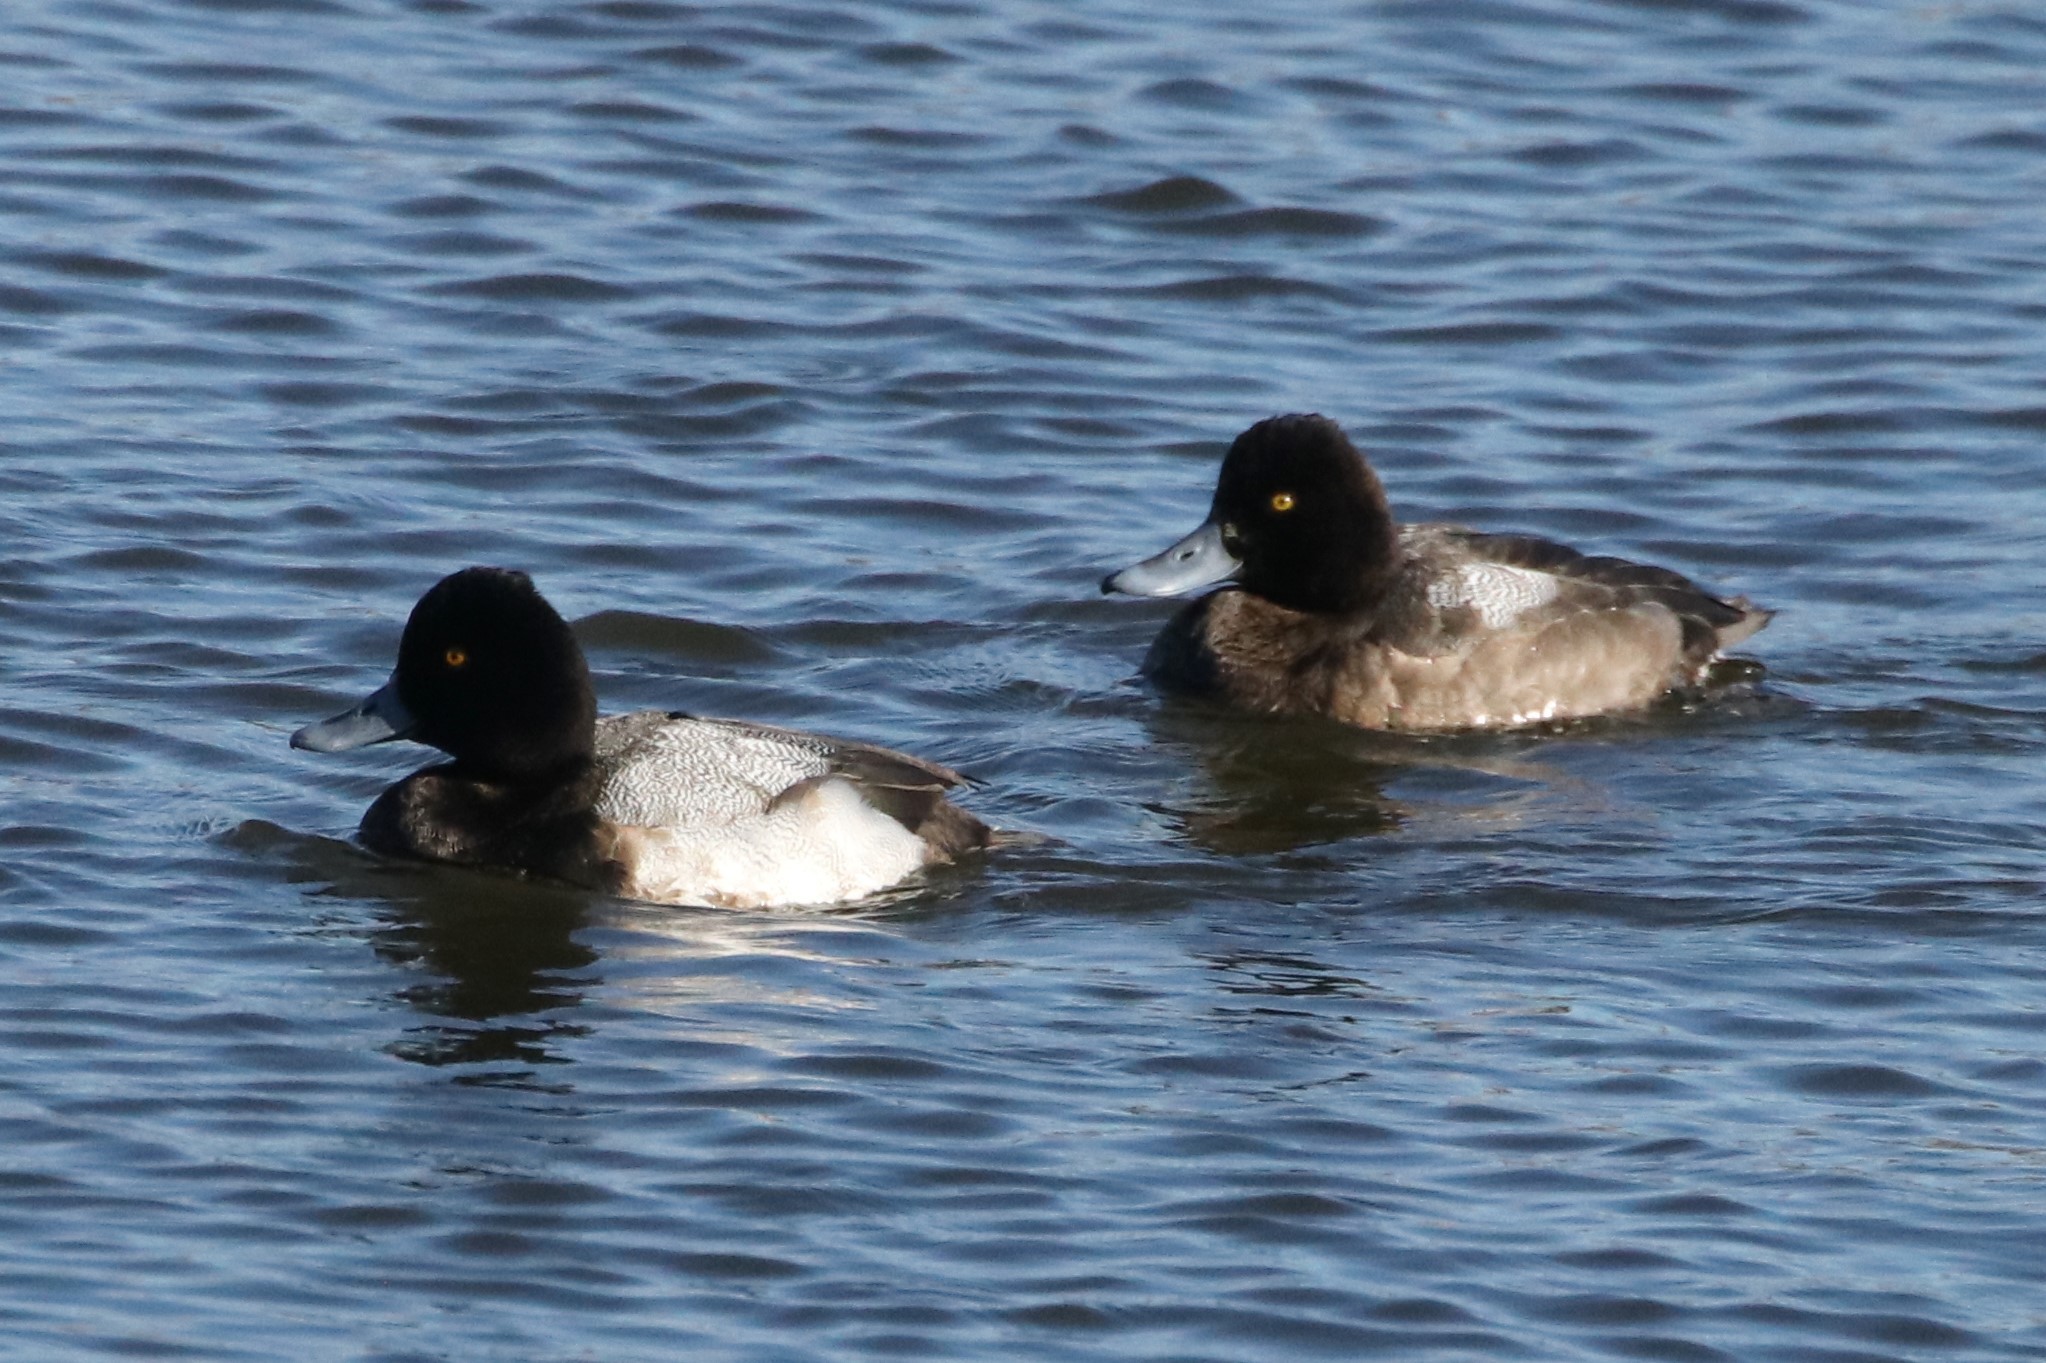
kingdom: Animalia
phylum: Chordata
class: Aves
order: Anseriformes
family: Anatidae
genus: Aythya
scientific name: Aythya affinis
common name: Lesser scaup
